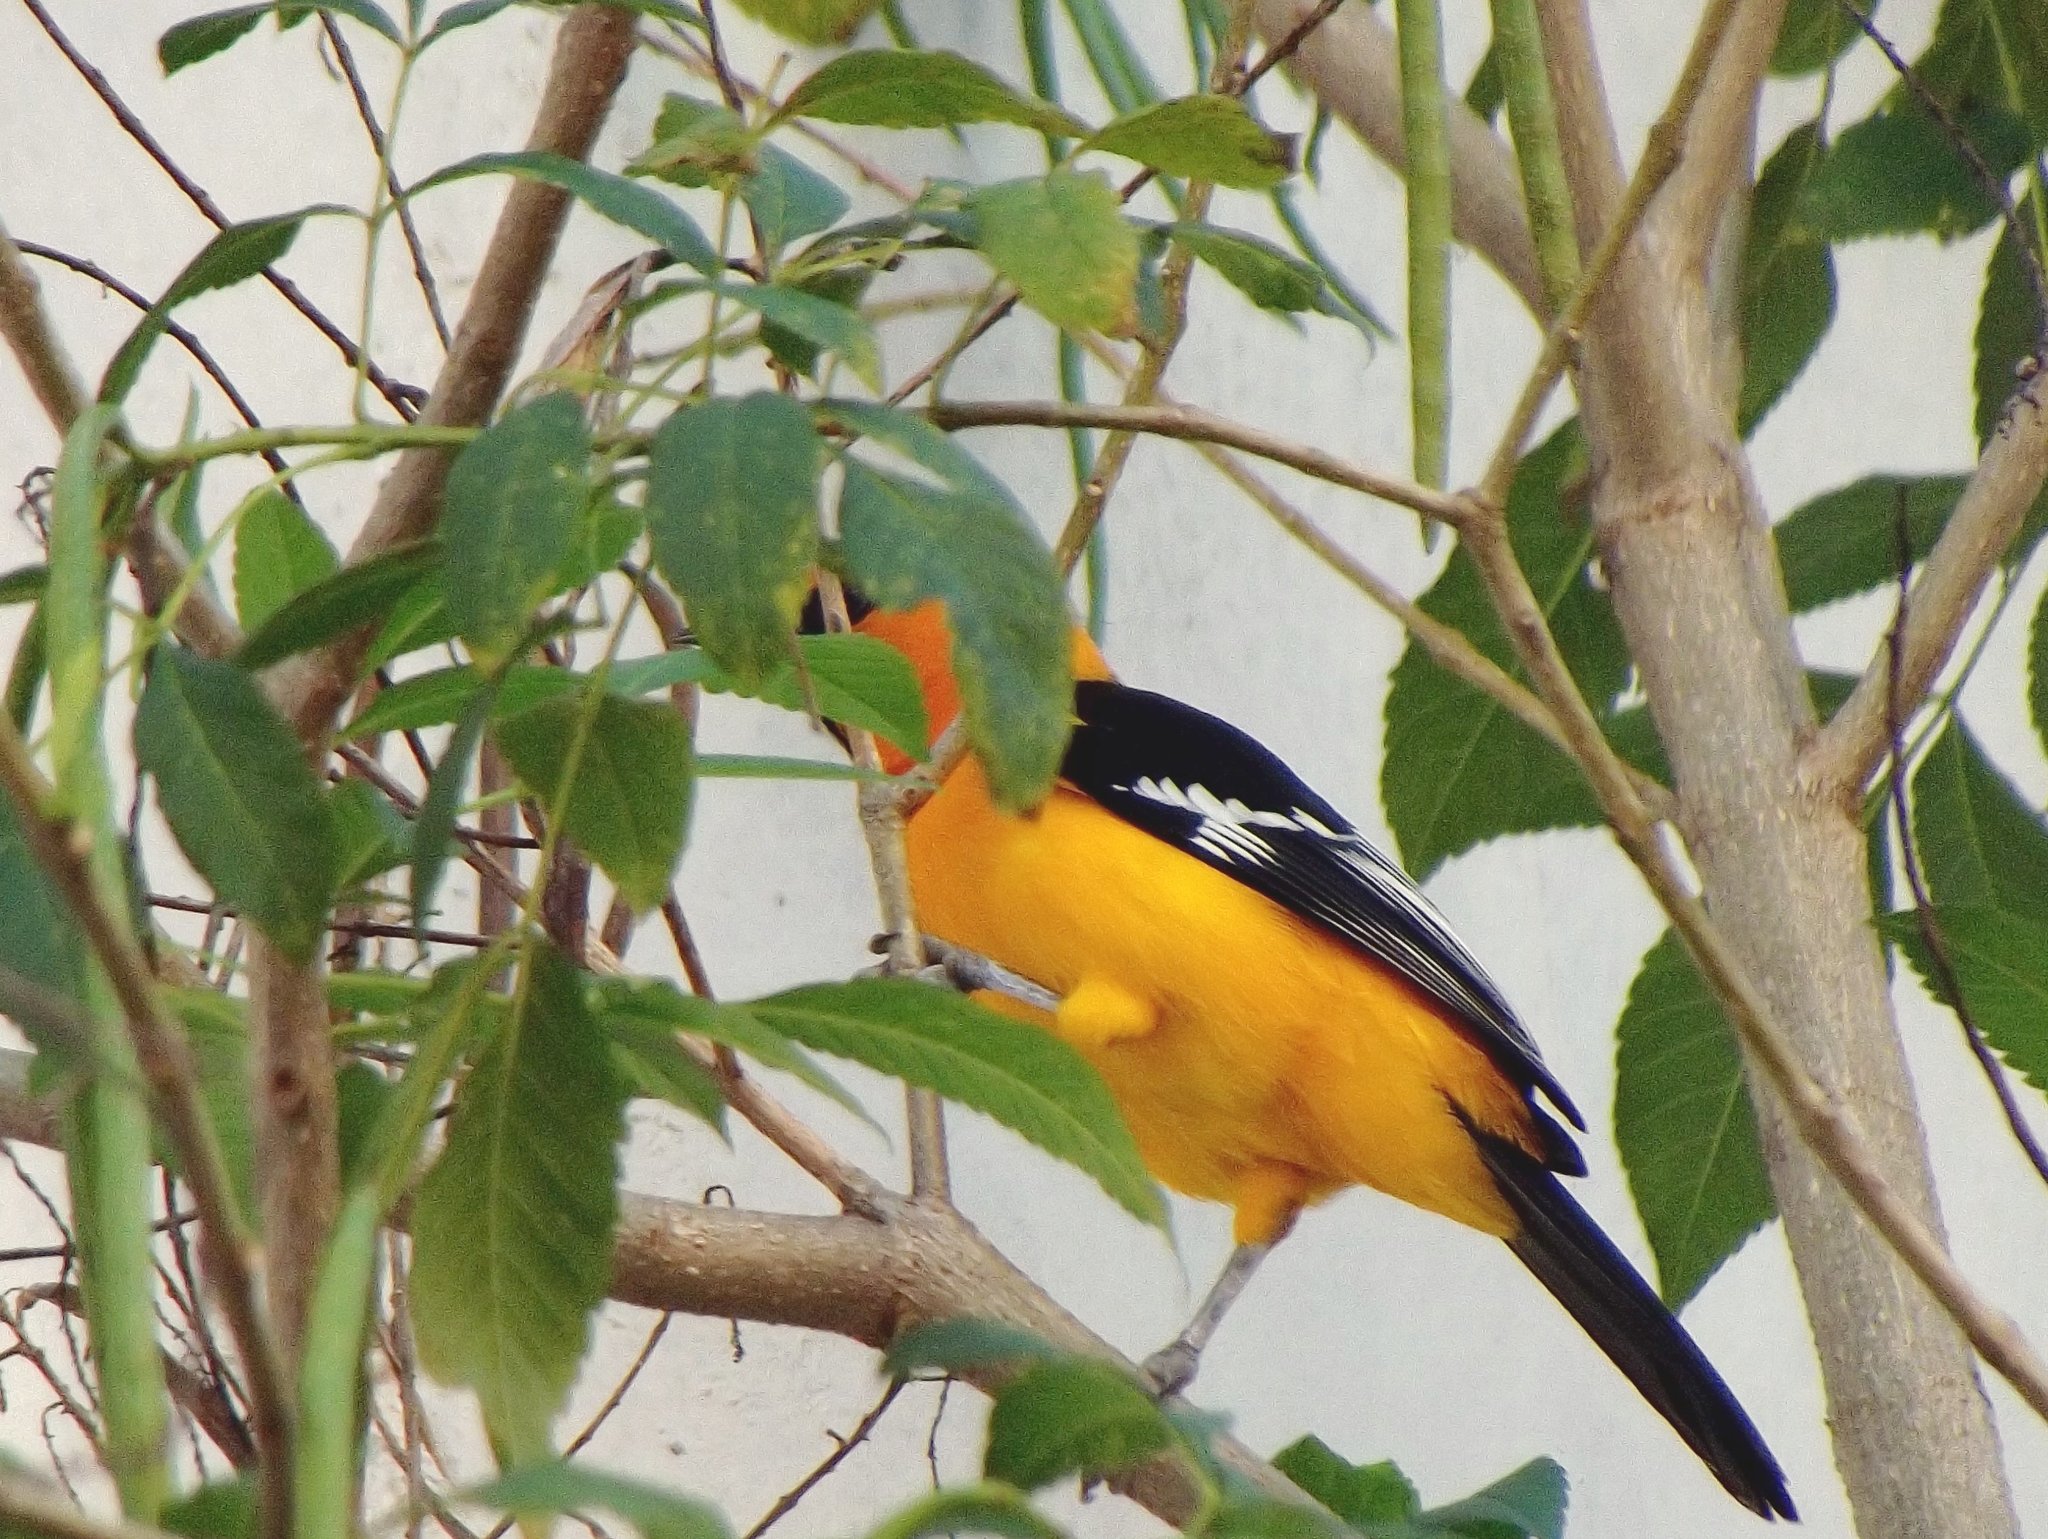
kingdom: Animalia
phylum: Chordata
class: Aves
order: Passeriformes
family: Icteridae
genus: Icterus
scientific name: Icterus gularis
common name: Altamira oriole
